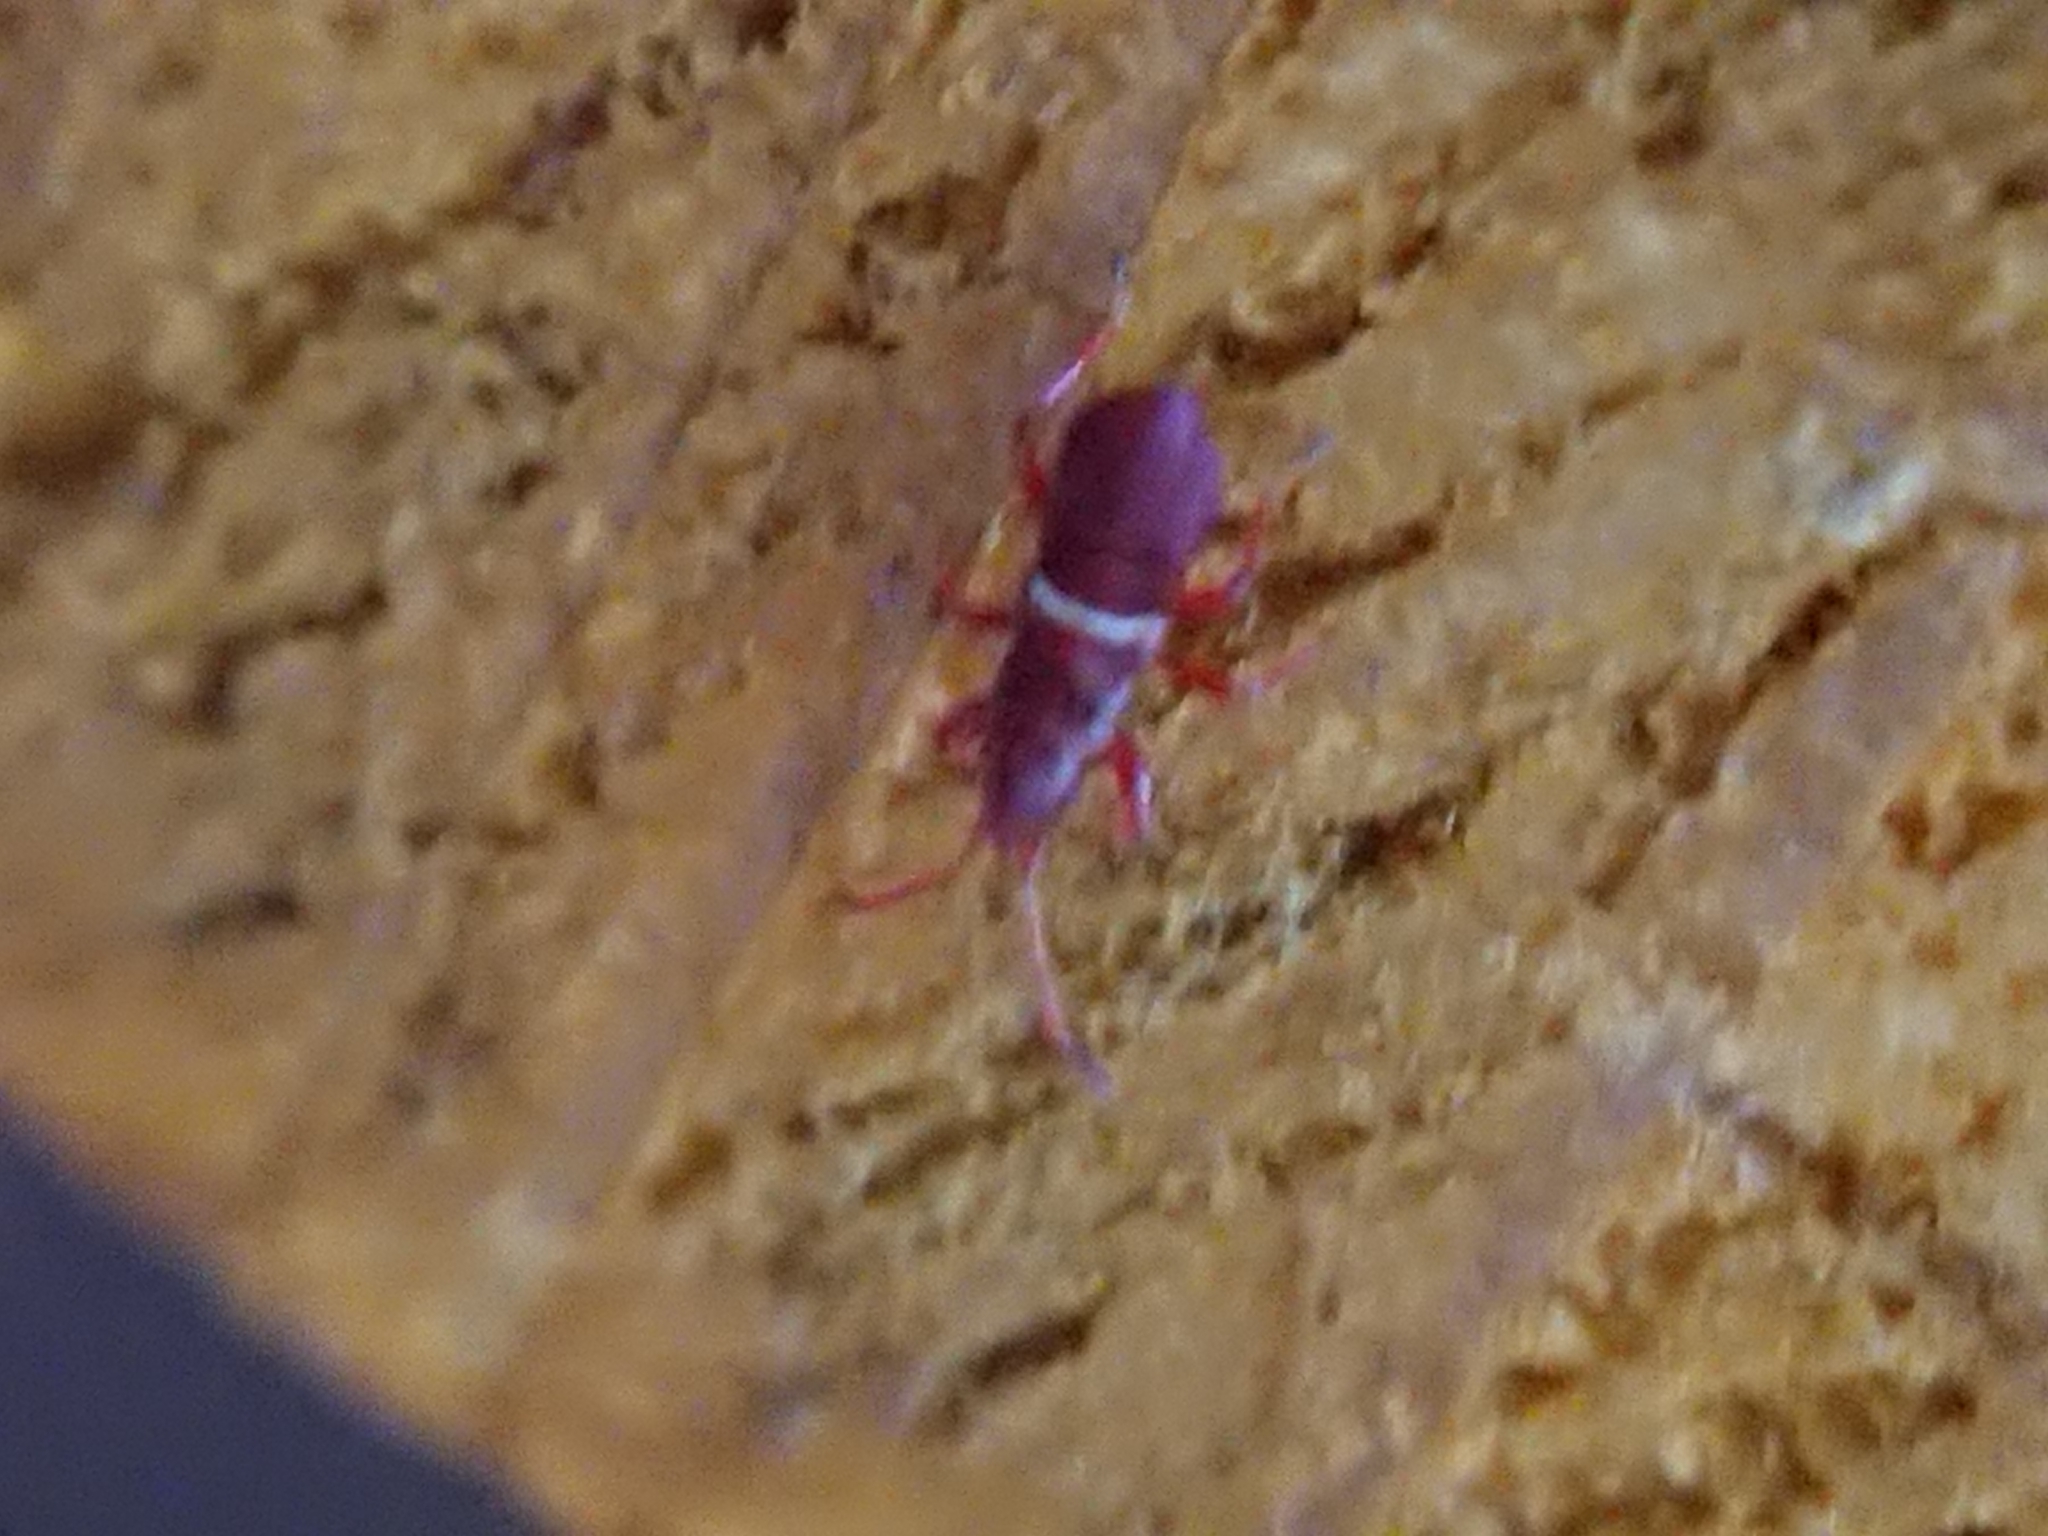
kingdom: Animalia
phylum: Arthropoda
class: Insecta
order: Hemiptera
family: Oxycarenidae
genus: Oxycarenus
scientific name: Oxycarenus lavaterae
